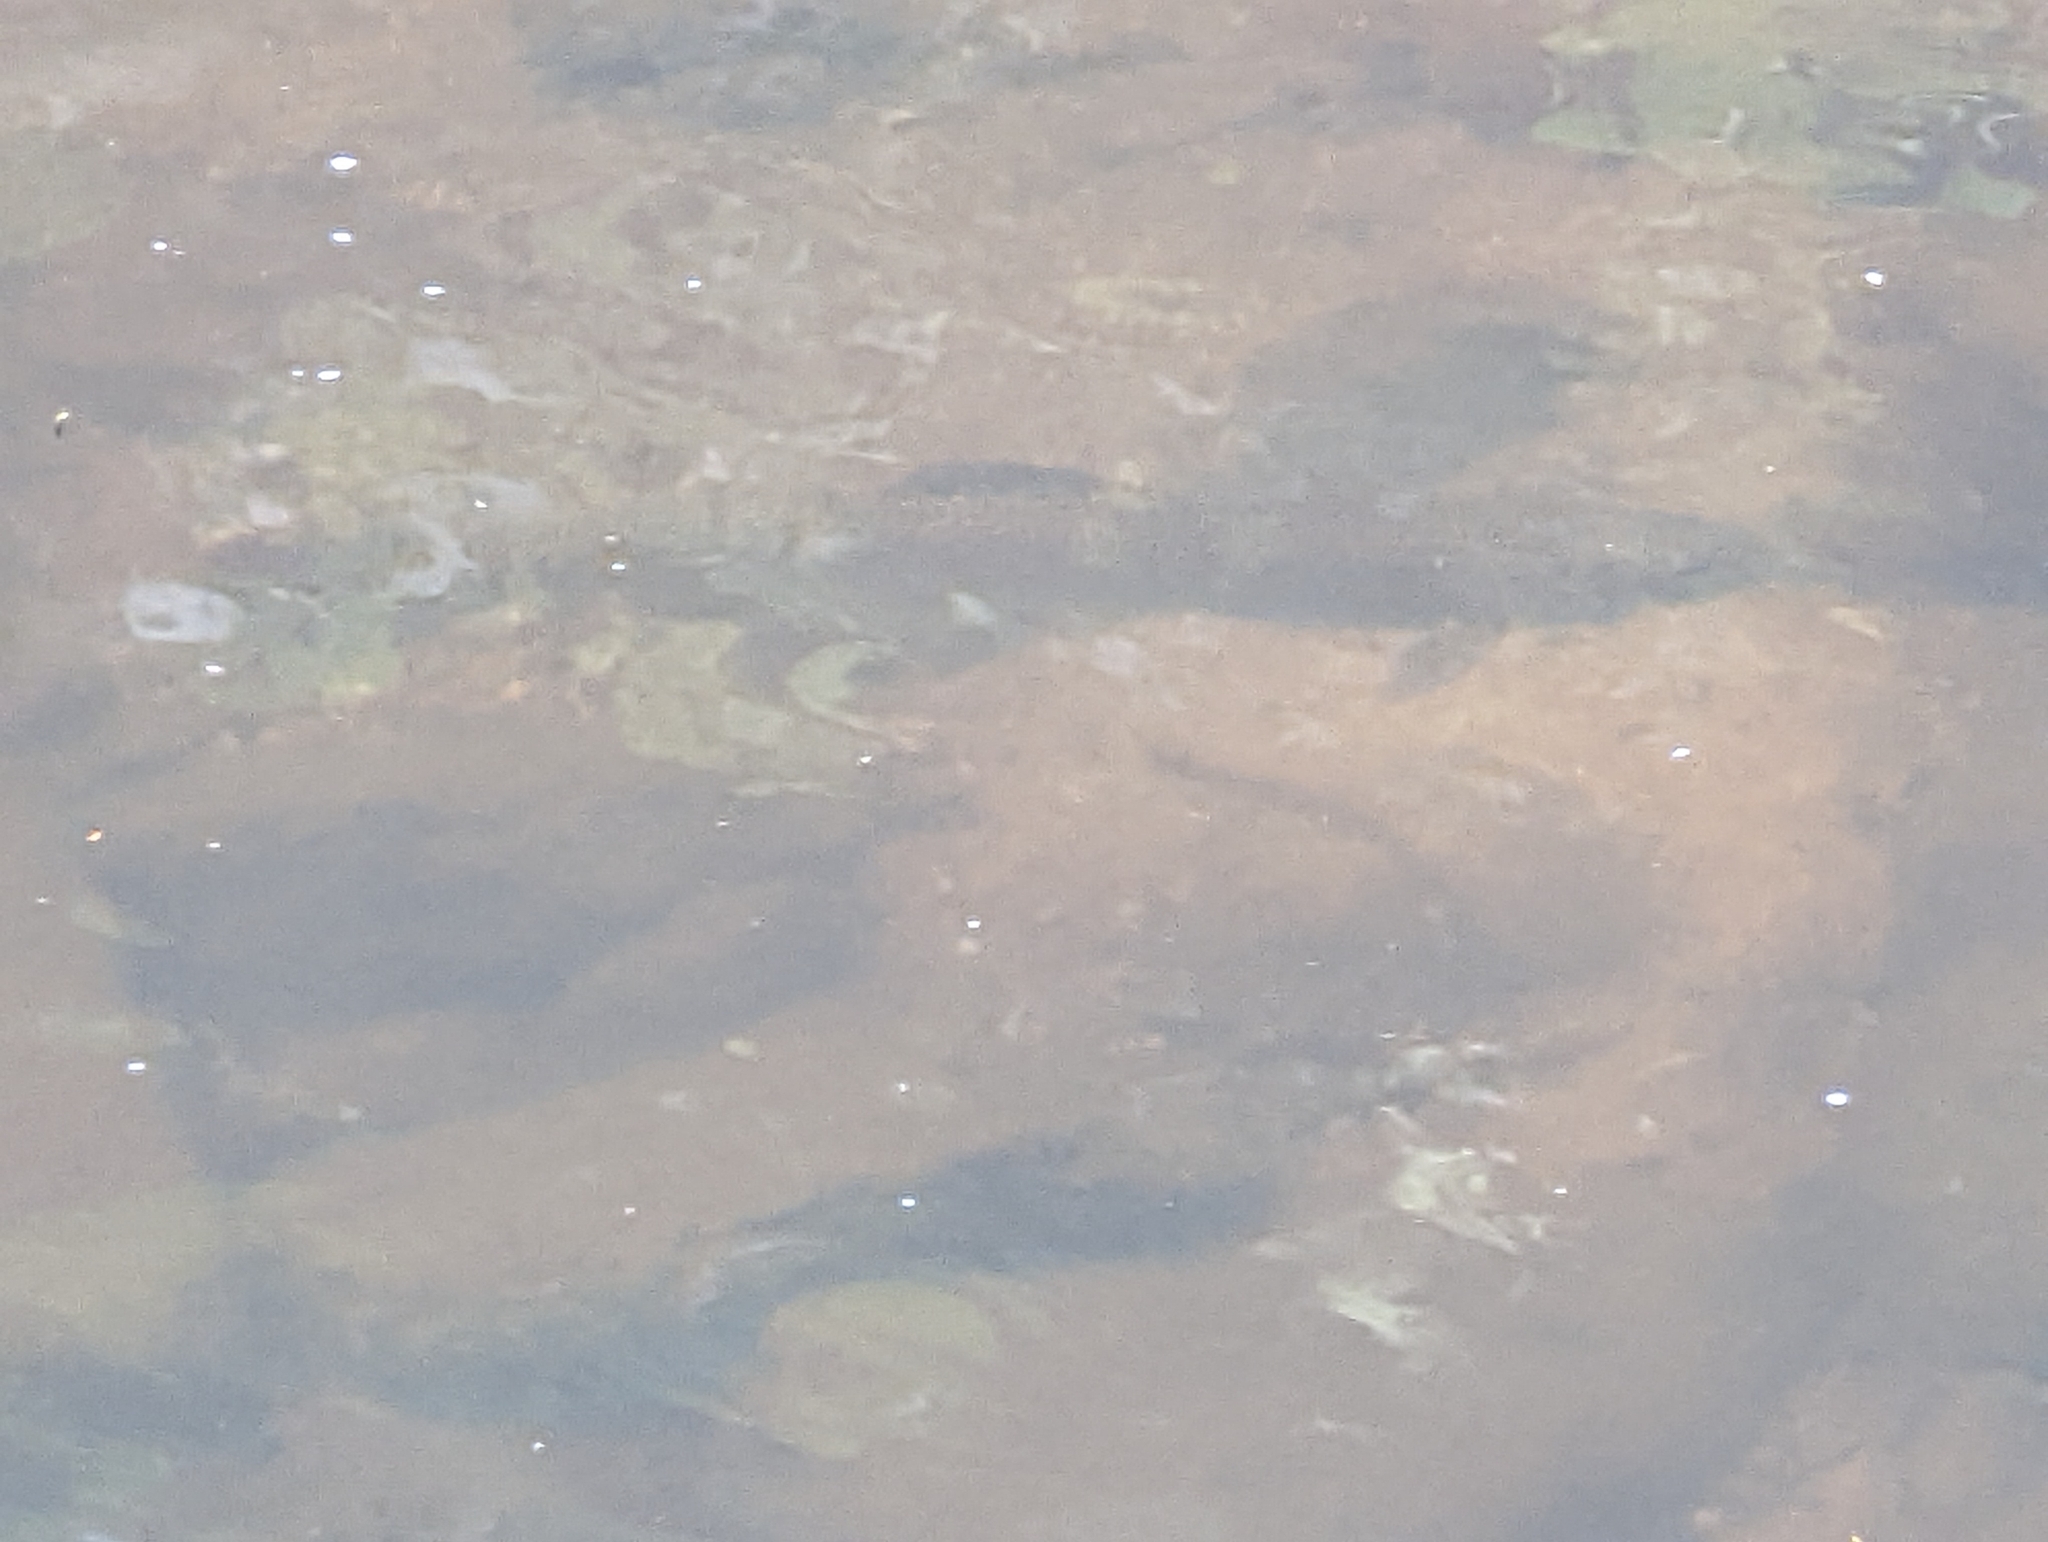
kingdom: Animalia
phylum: Chordata
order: Salmoniformes
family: Salmonidae
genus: Salmo
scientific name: Salmo trutta
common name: Brown trout
